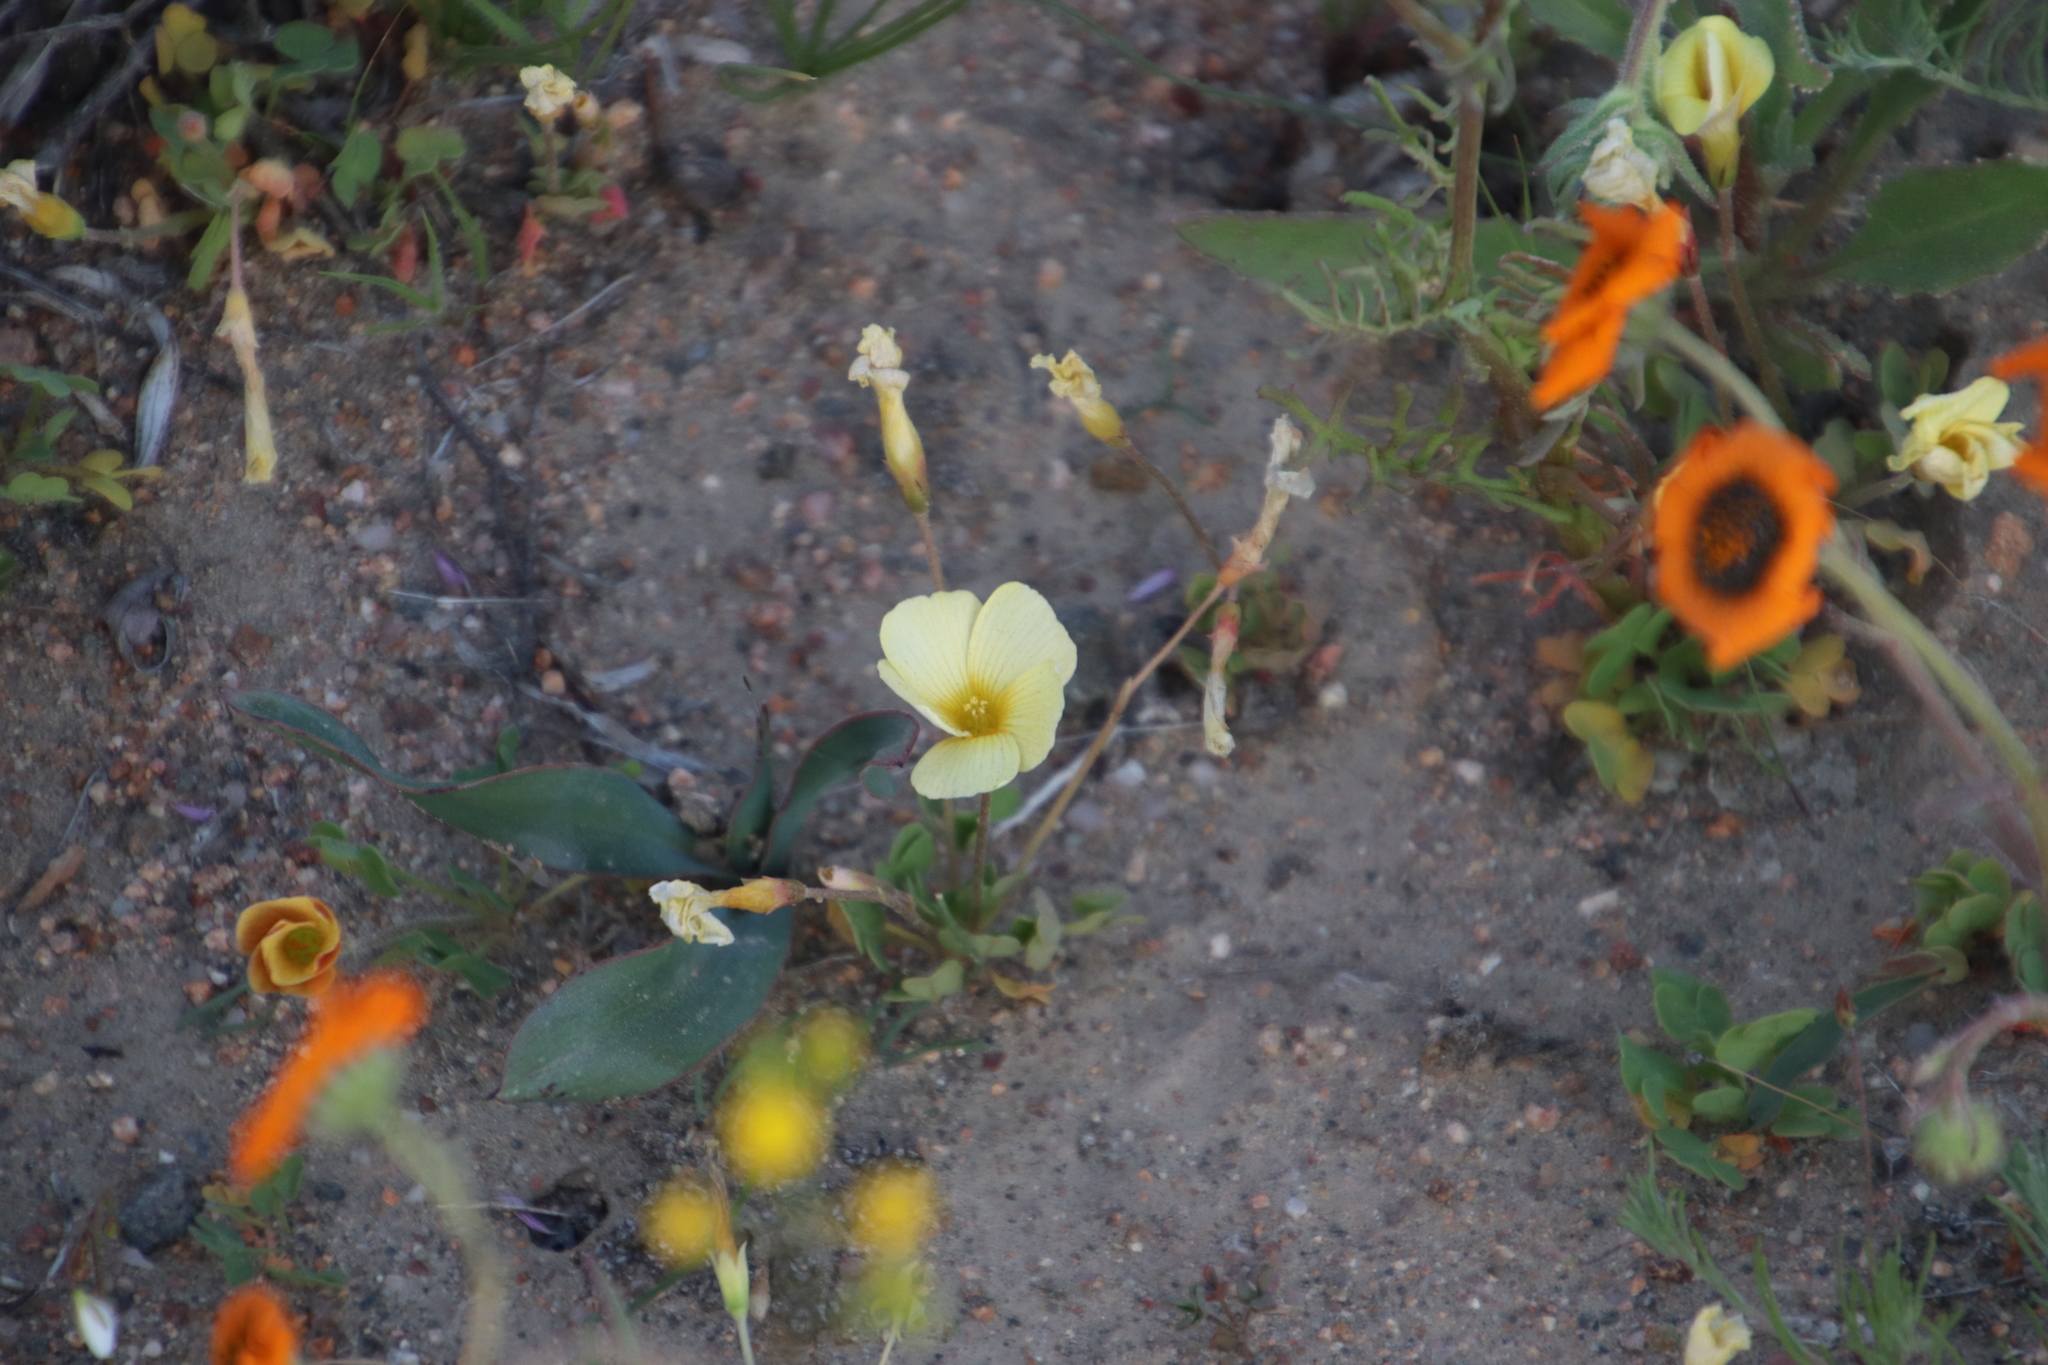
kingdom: Plantae
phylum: Tracheophyta
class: Magnoliopsida
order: Oxalidales
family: Oxalidaceae
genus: Oxalis
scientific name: Oxalis obtusa
